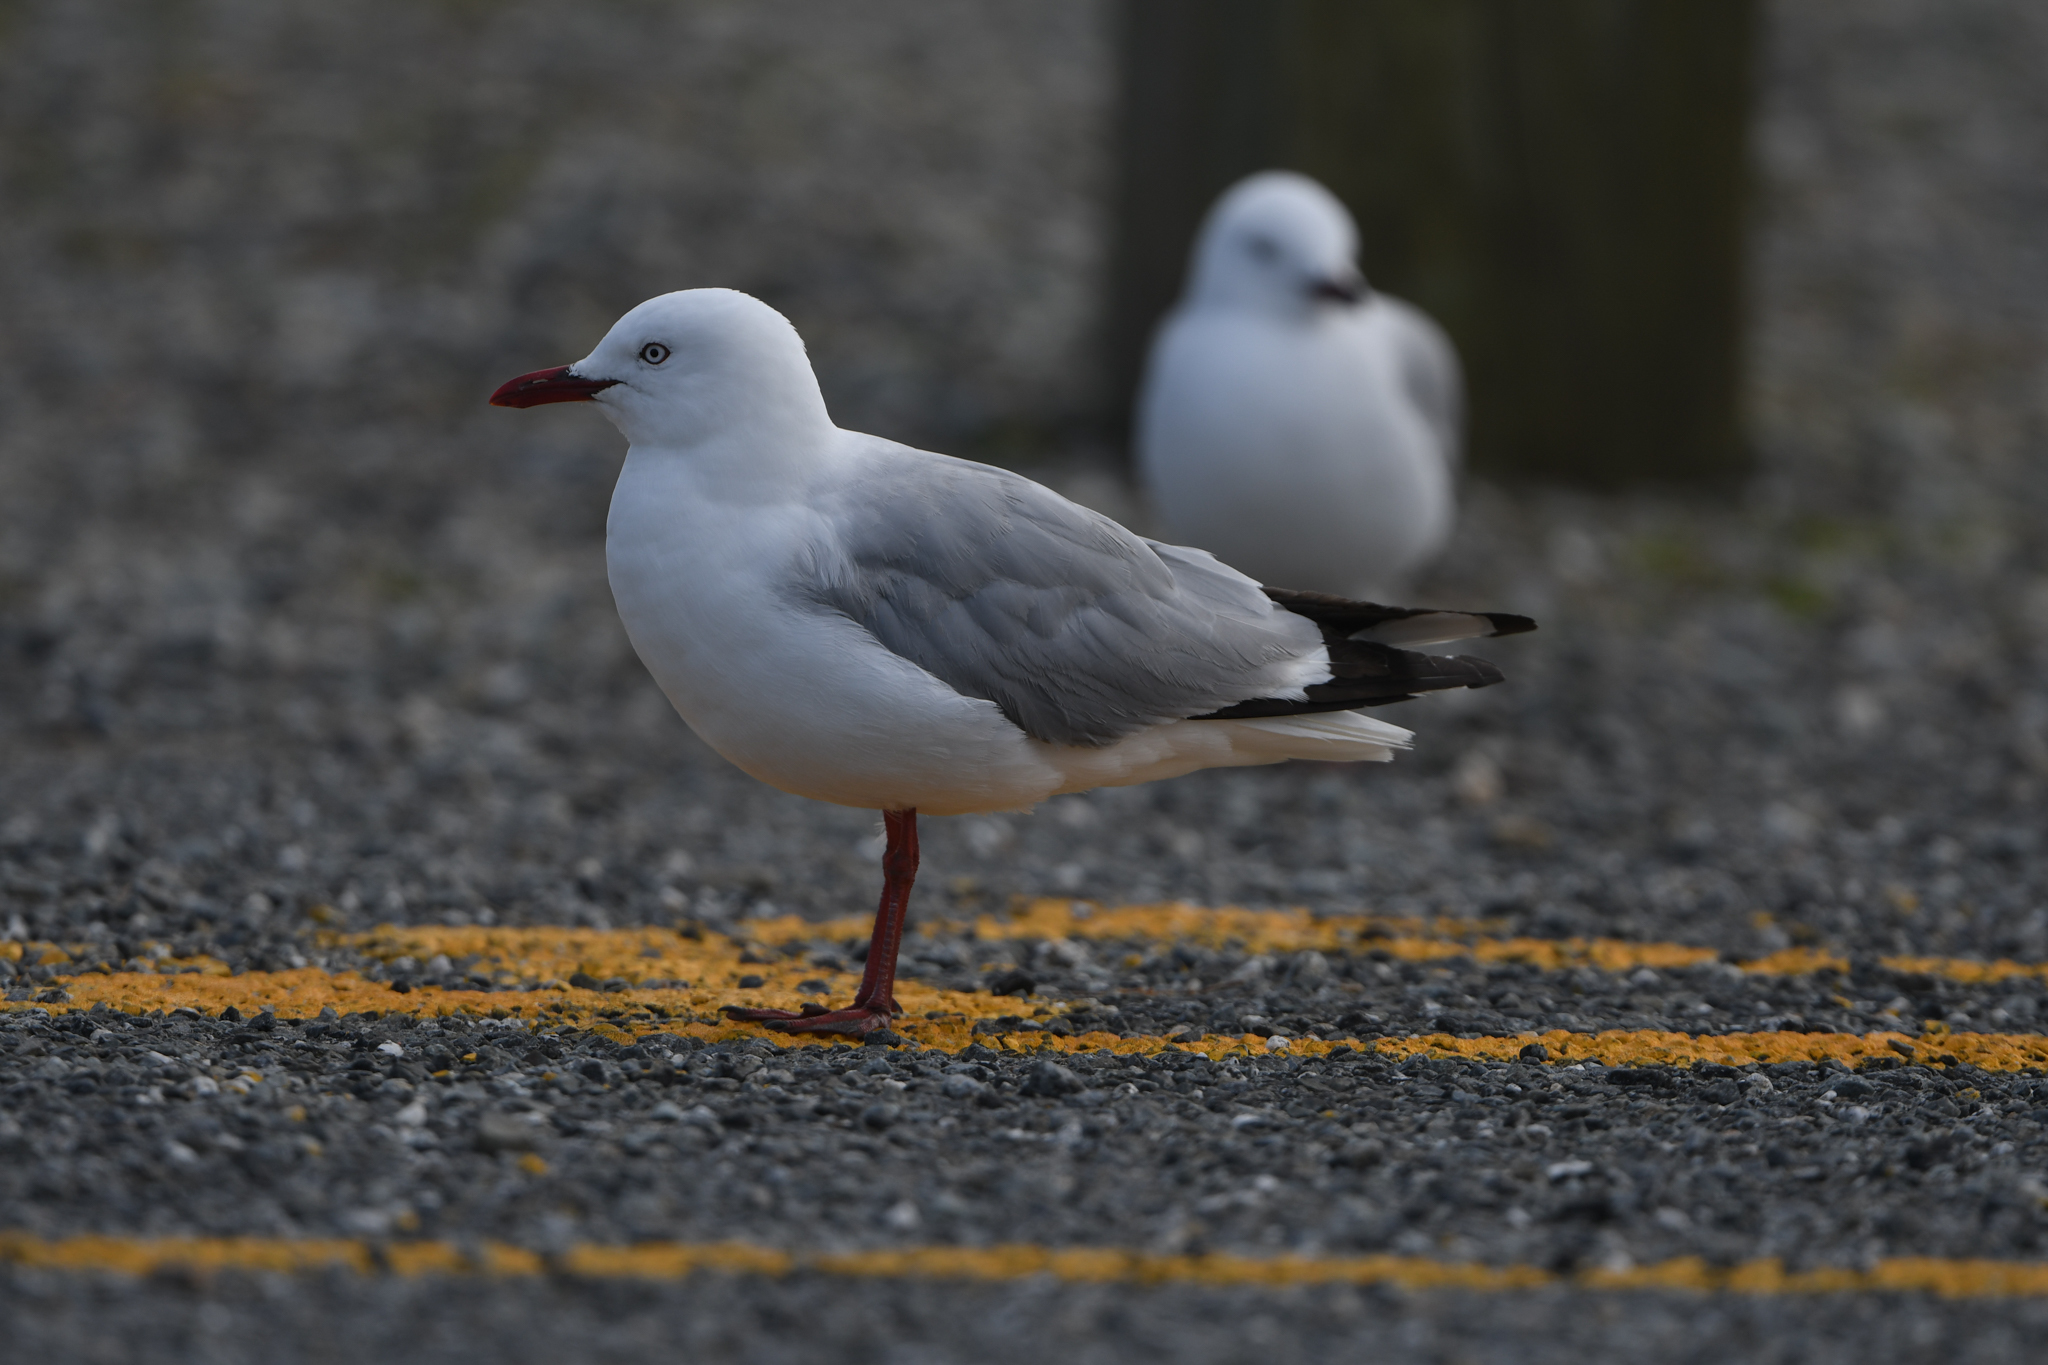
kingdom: Animalia
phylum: Chordata
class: Aves
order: Charadriiformes
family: Laridae
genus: Chroicocephalus
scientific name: Chroicocephalus novaehollandiae
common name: Silver gull
